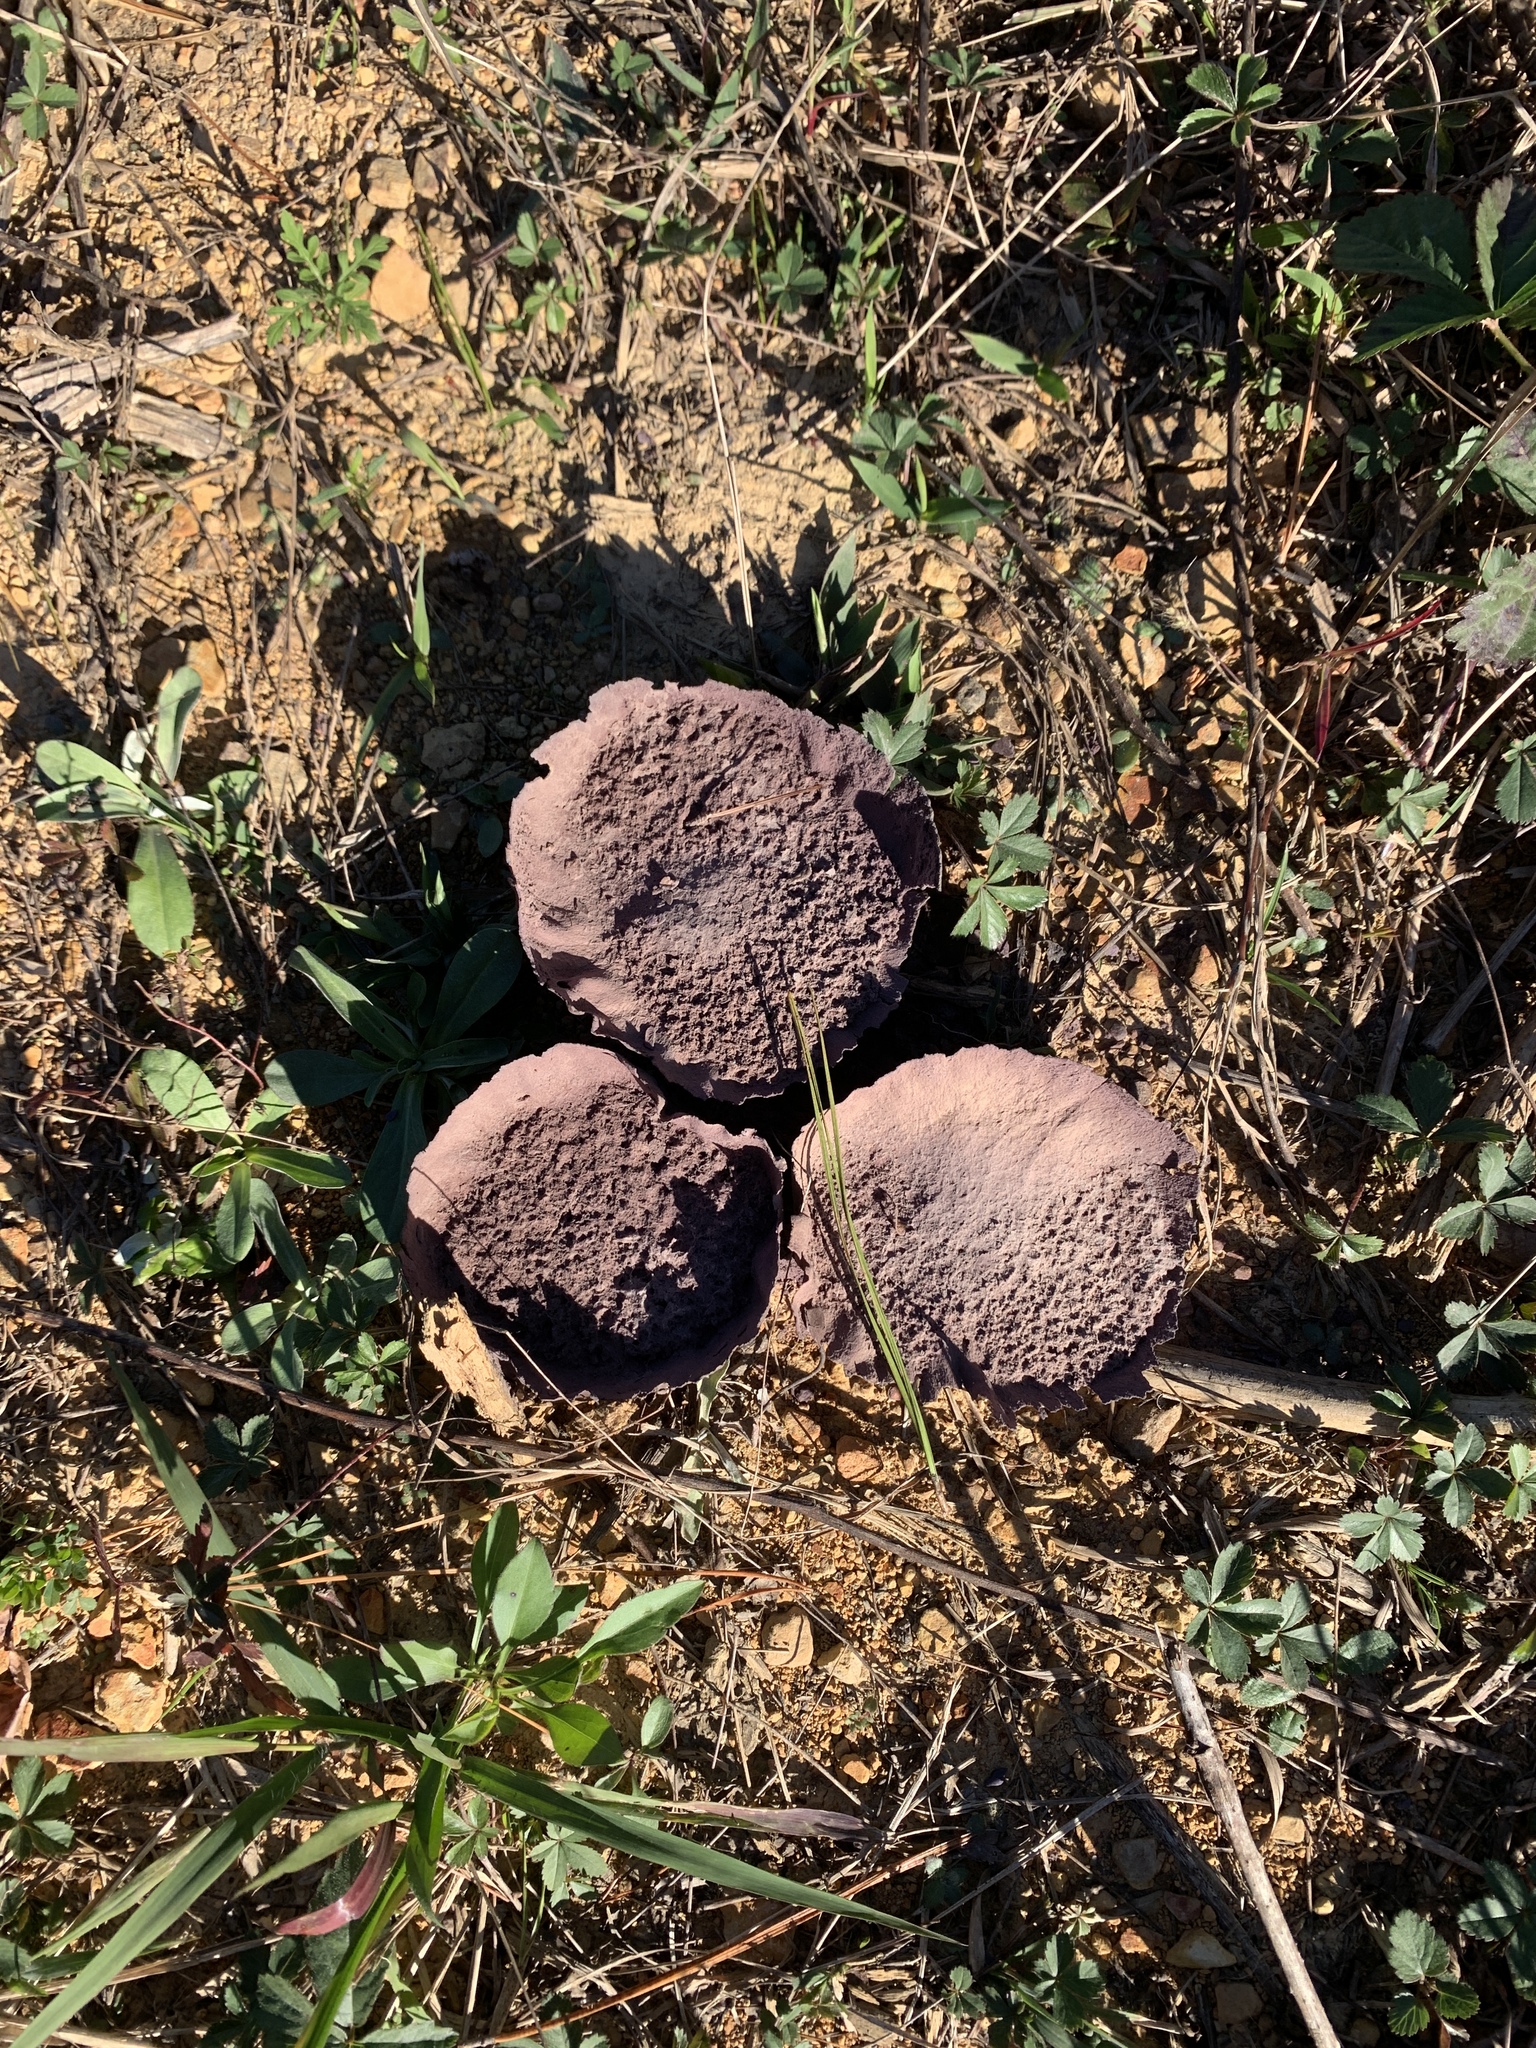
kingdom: Fungi
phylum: Basidiomycota
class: Agaricomycetes
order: Agaricales
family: Lycoperdaceae
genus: Calvatia
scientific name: Calvatia cyathiformis
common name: Purple-spored puffball
